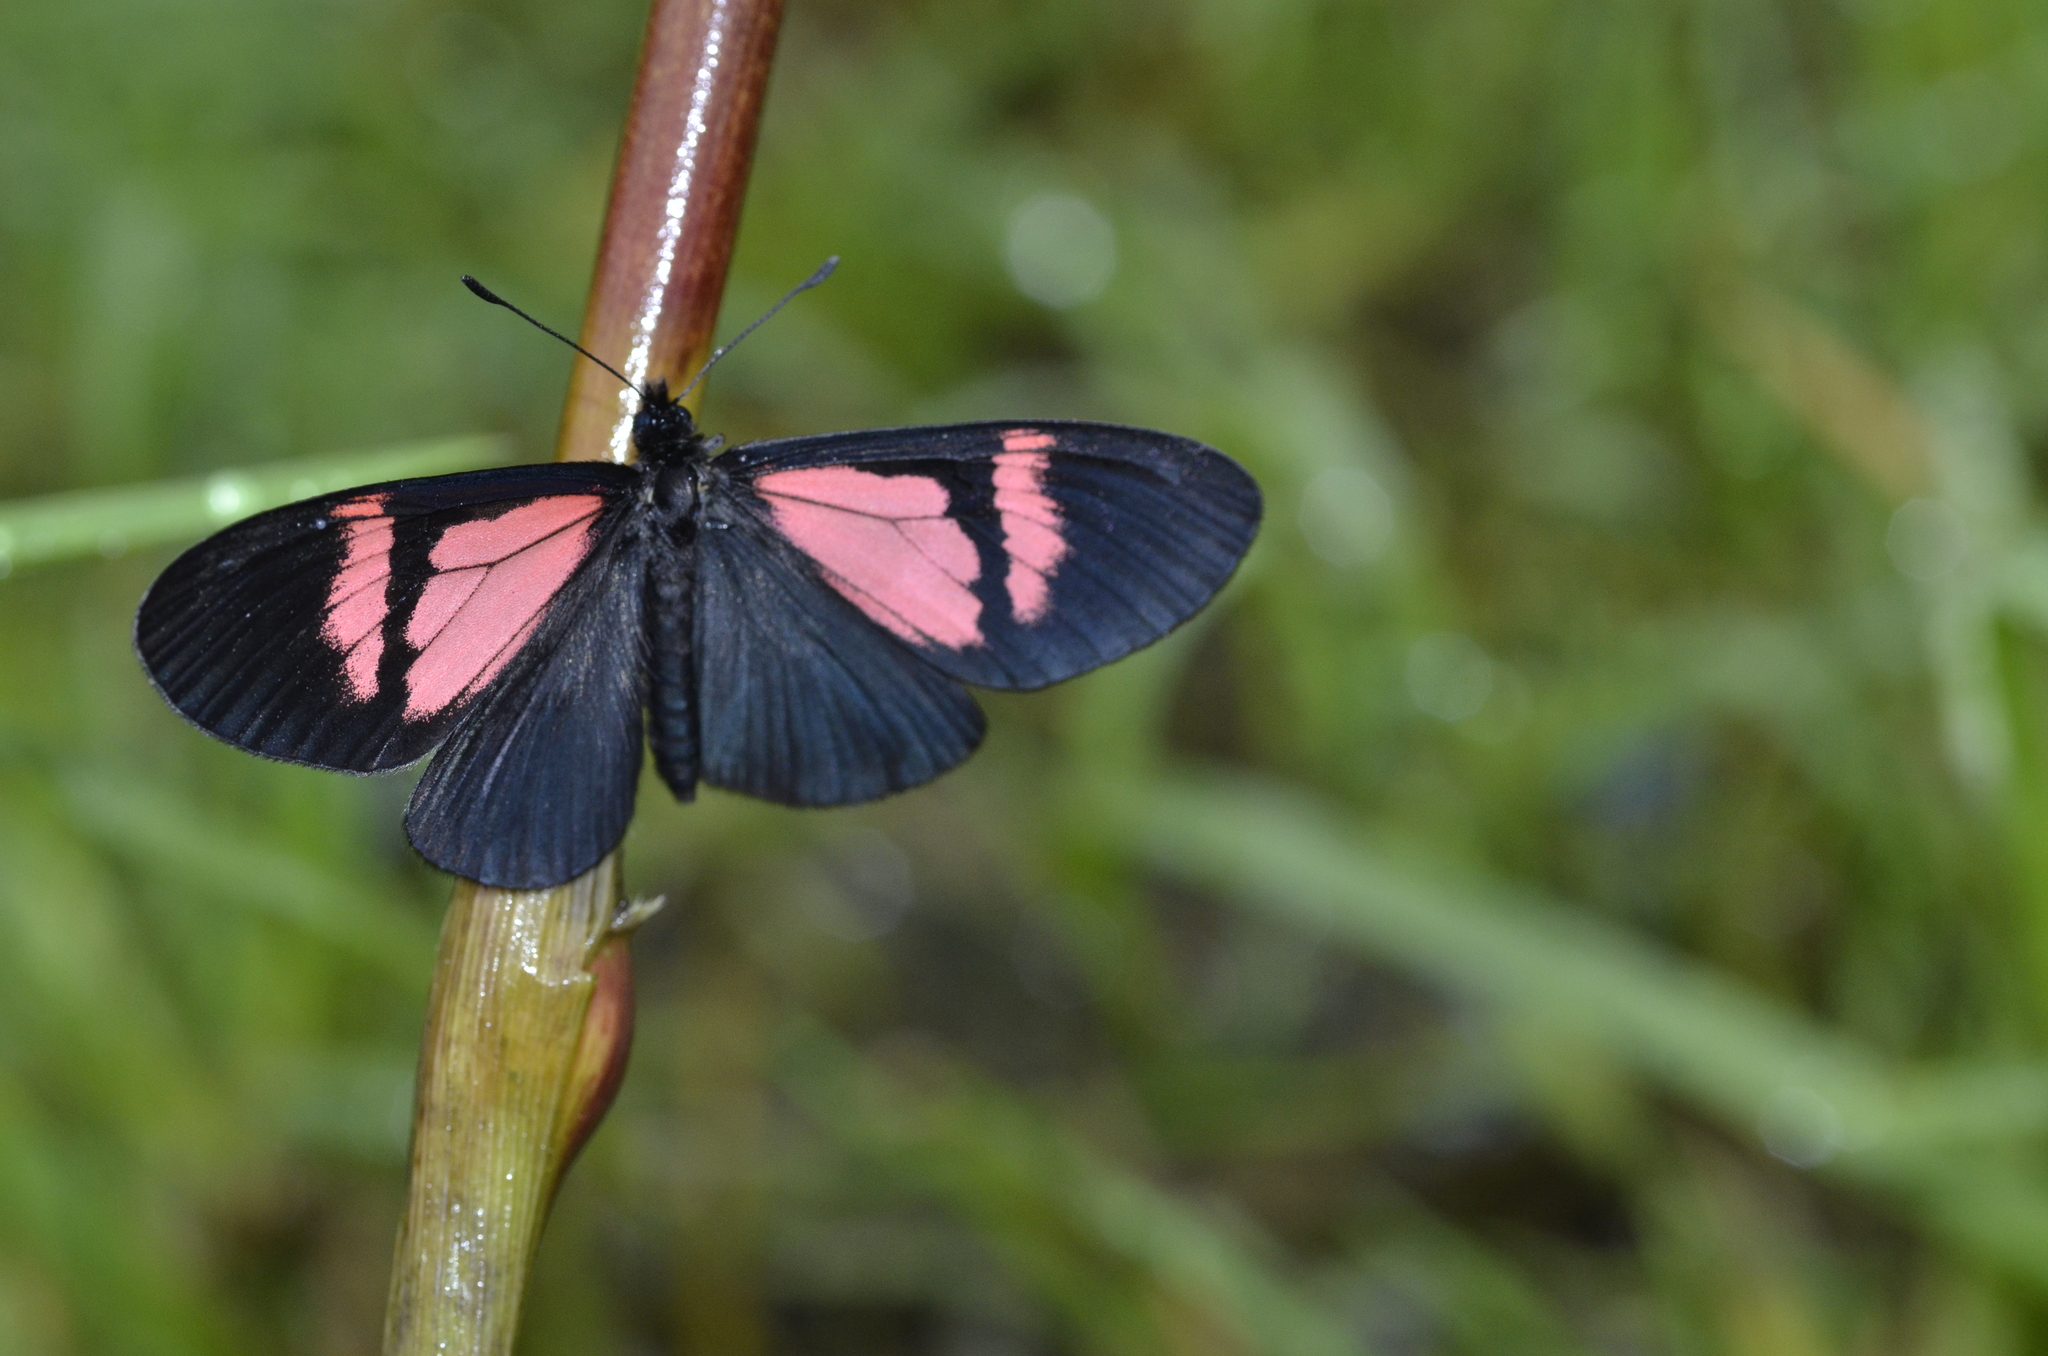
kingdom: Animalia
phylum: Arthropoda
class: Insecta
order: Lepidoptera
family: Nymphalidae
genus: Acraea
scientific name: Acraea Altinote dicaeus
